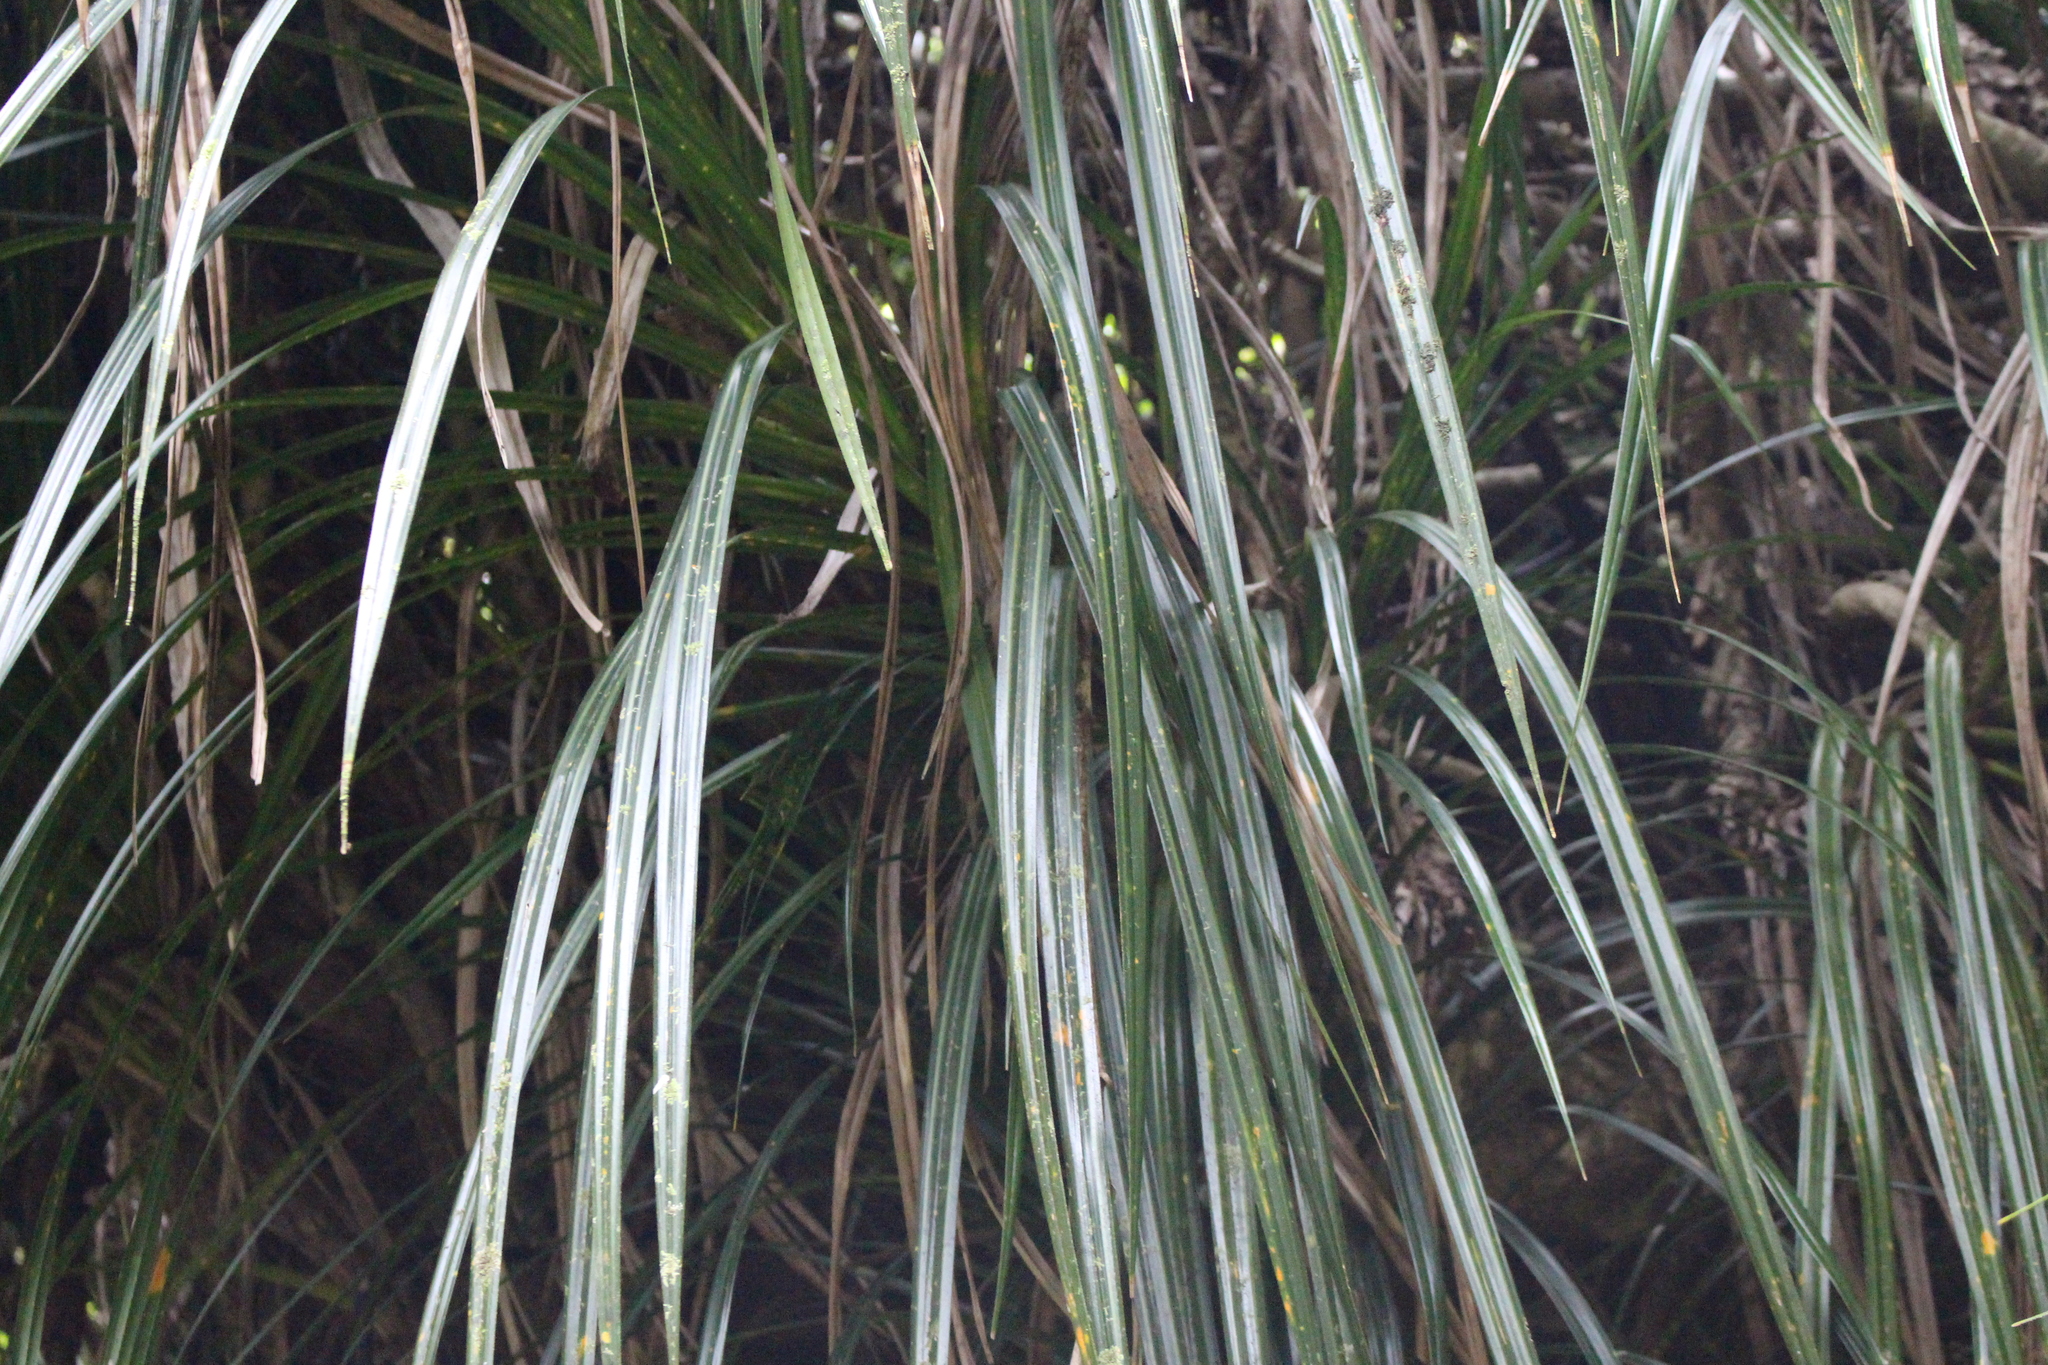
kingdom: Plantae
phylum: Tracheophyta
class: Liliopsida
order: Pandanales
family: Pandanaceae
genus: Freycinetia
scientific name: Freycinetia banksii
